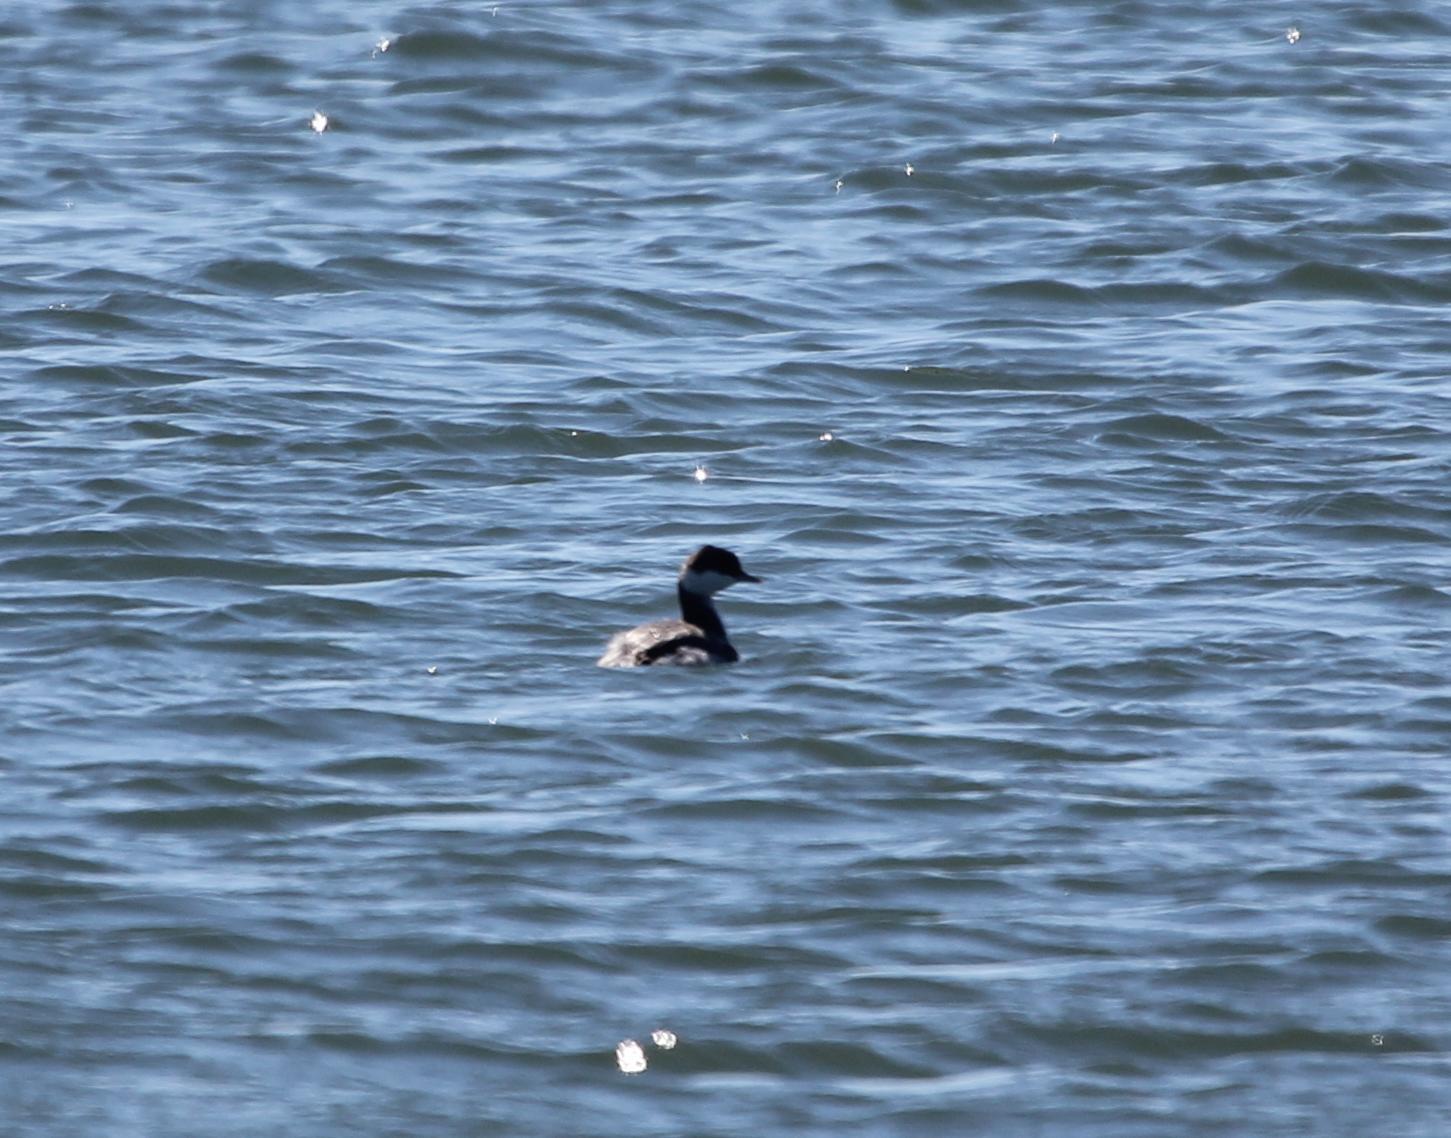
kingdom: Animalia
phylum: Chordata
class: Aves
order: Podicipediformes
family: Podicipedidae
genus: Podiceps
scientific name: Podiceps auritus
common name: Horned grebe
